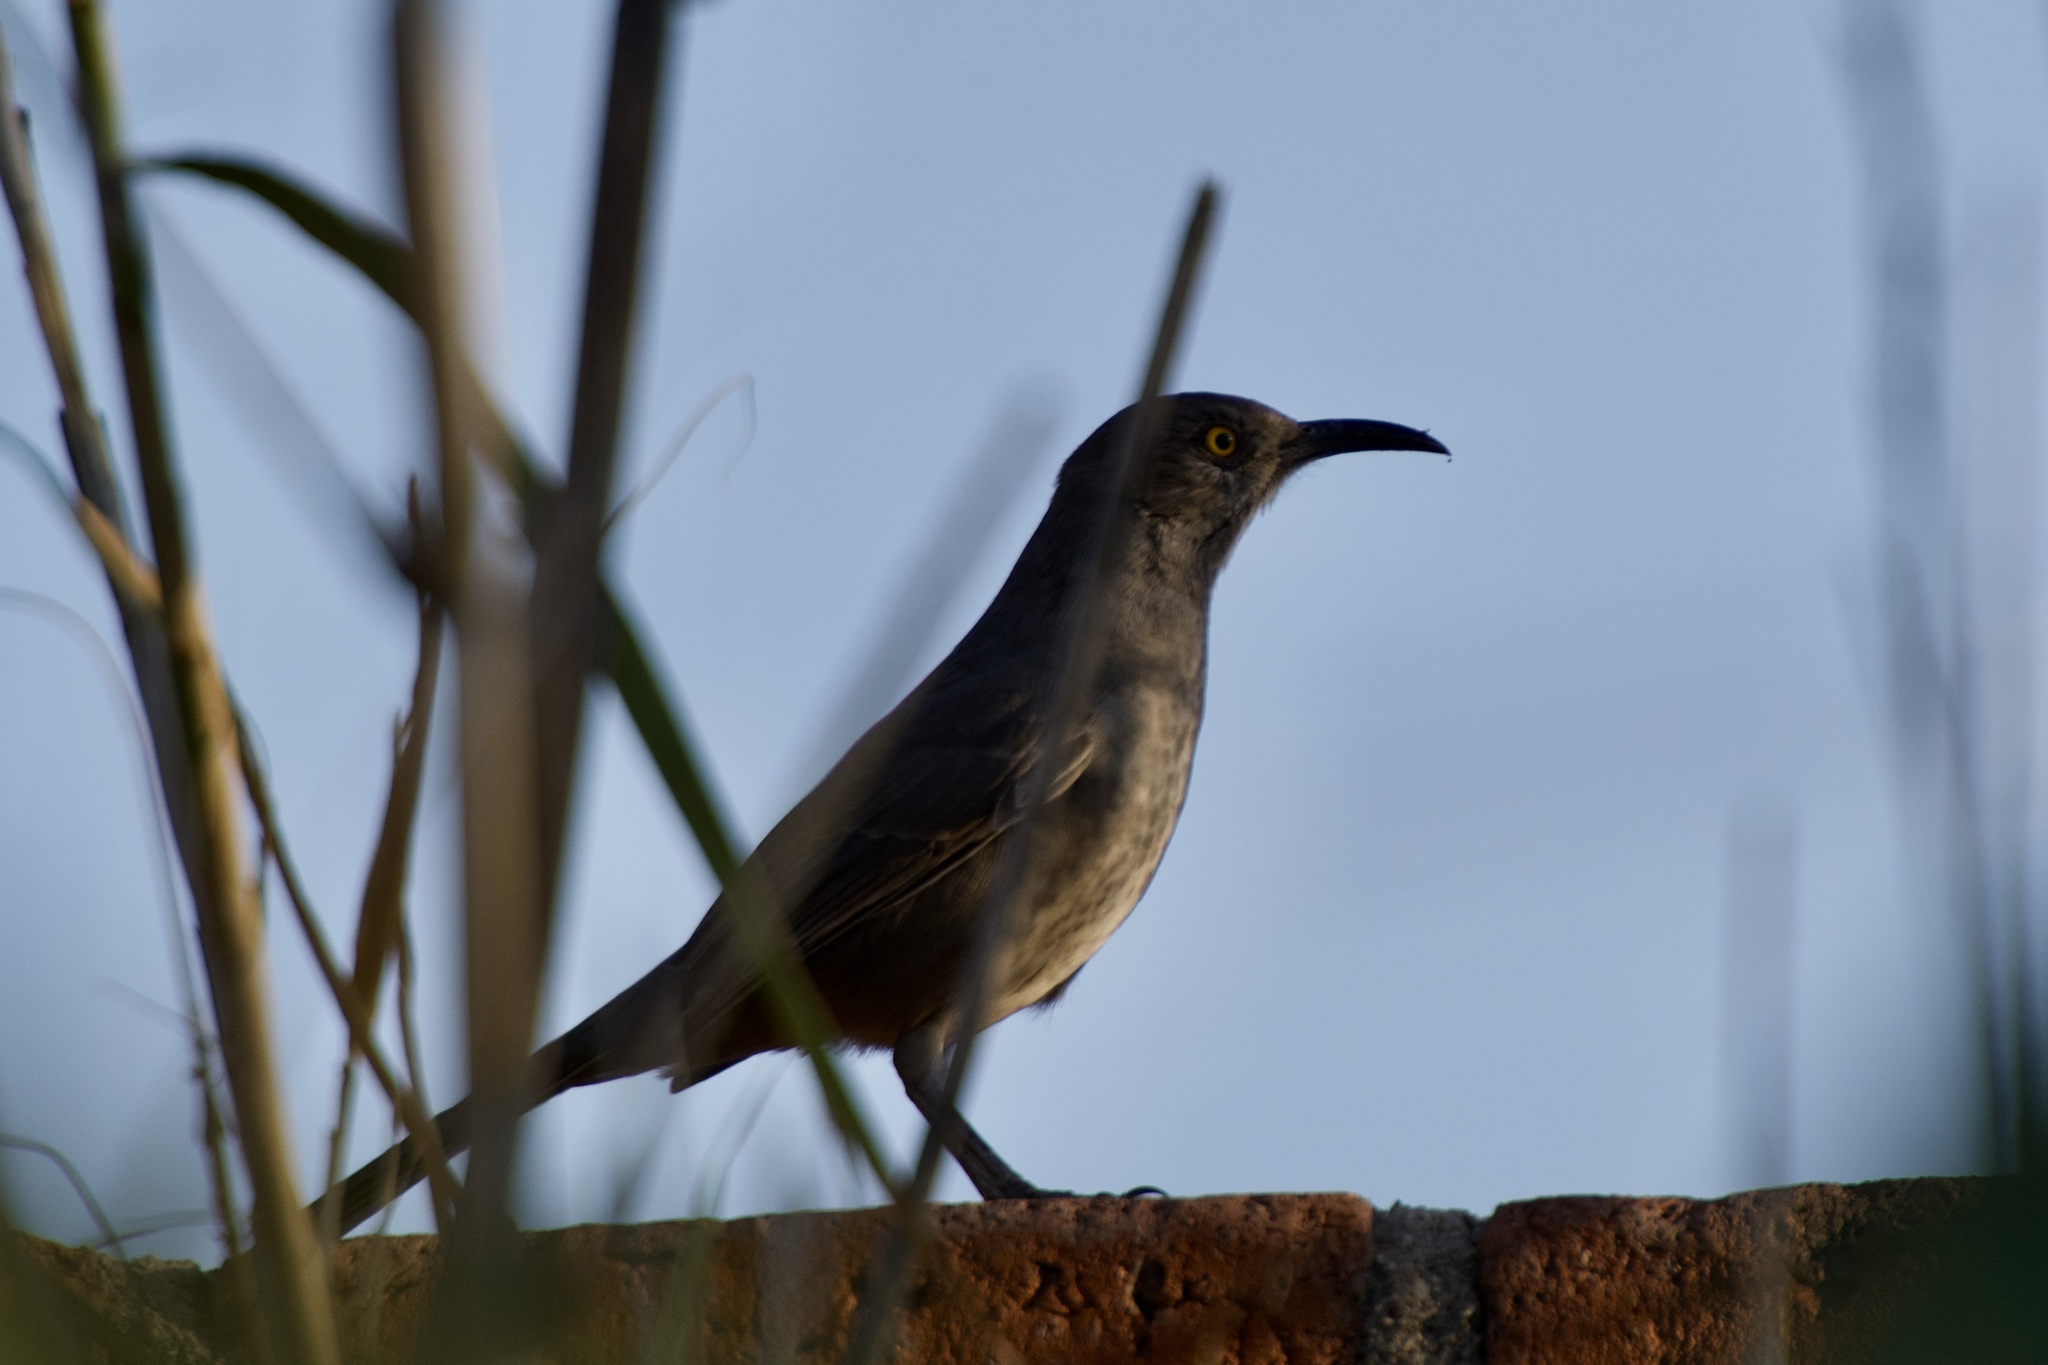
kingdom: Animalia
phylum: Chordata
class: Aves
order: Passeriformes
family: Mimidae
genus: Toxostoma
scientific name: Toxostoma curvirostre
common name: Curve-billed thrasher
